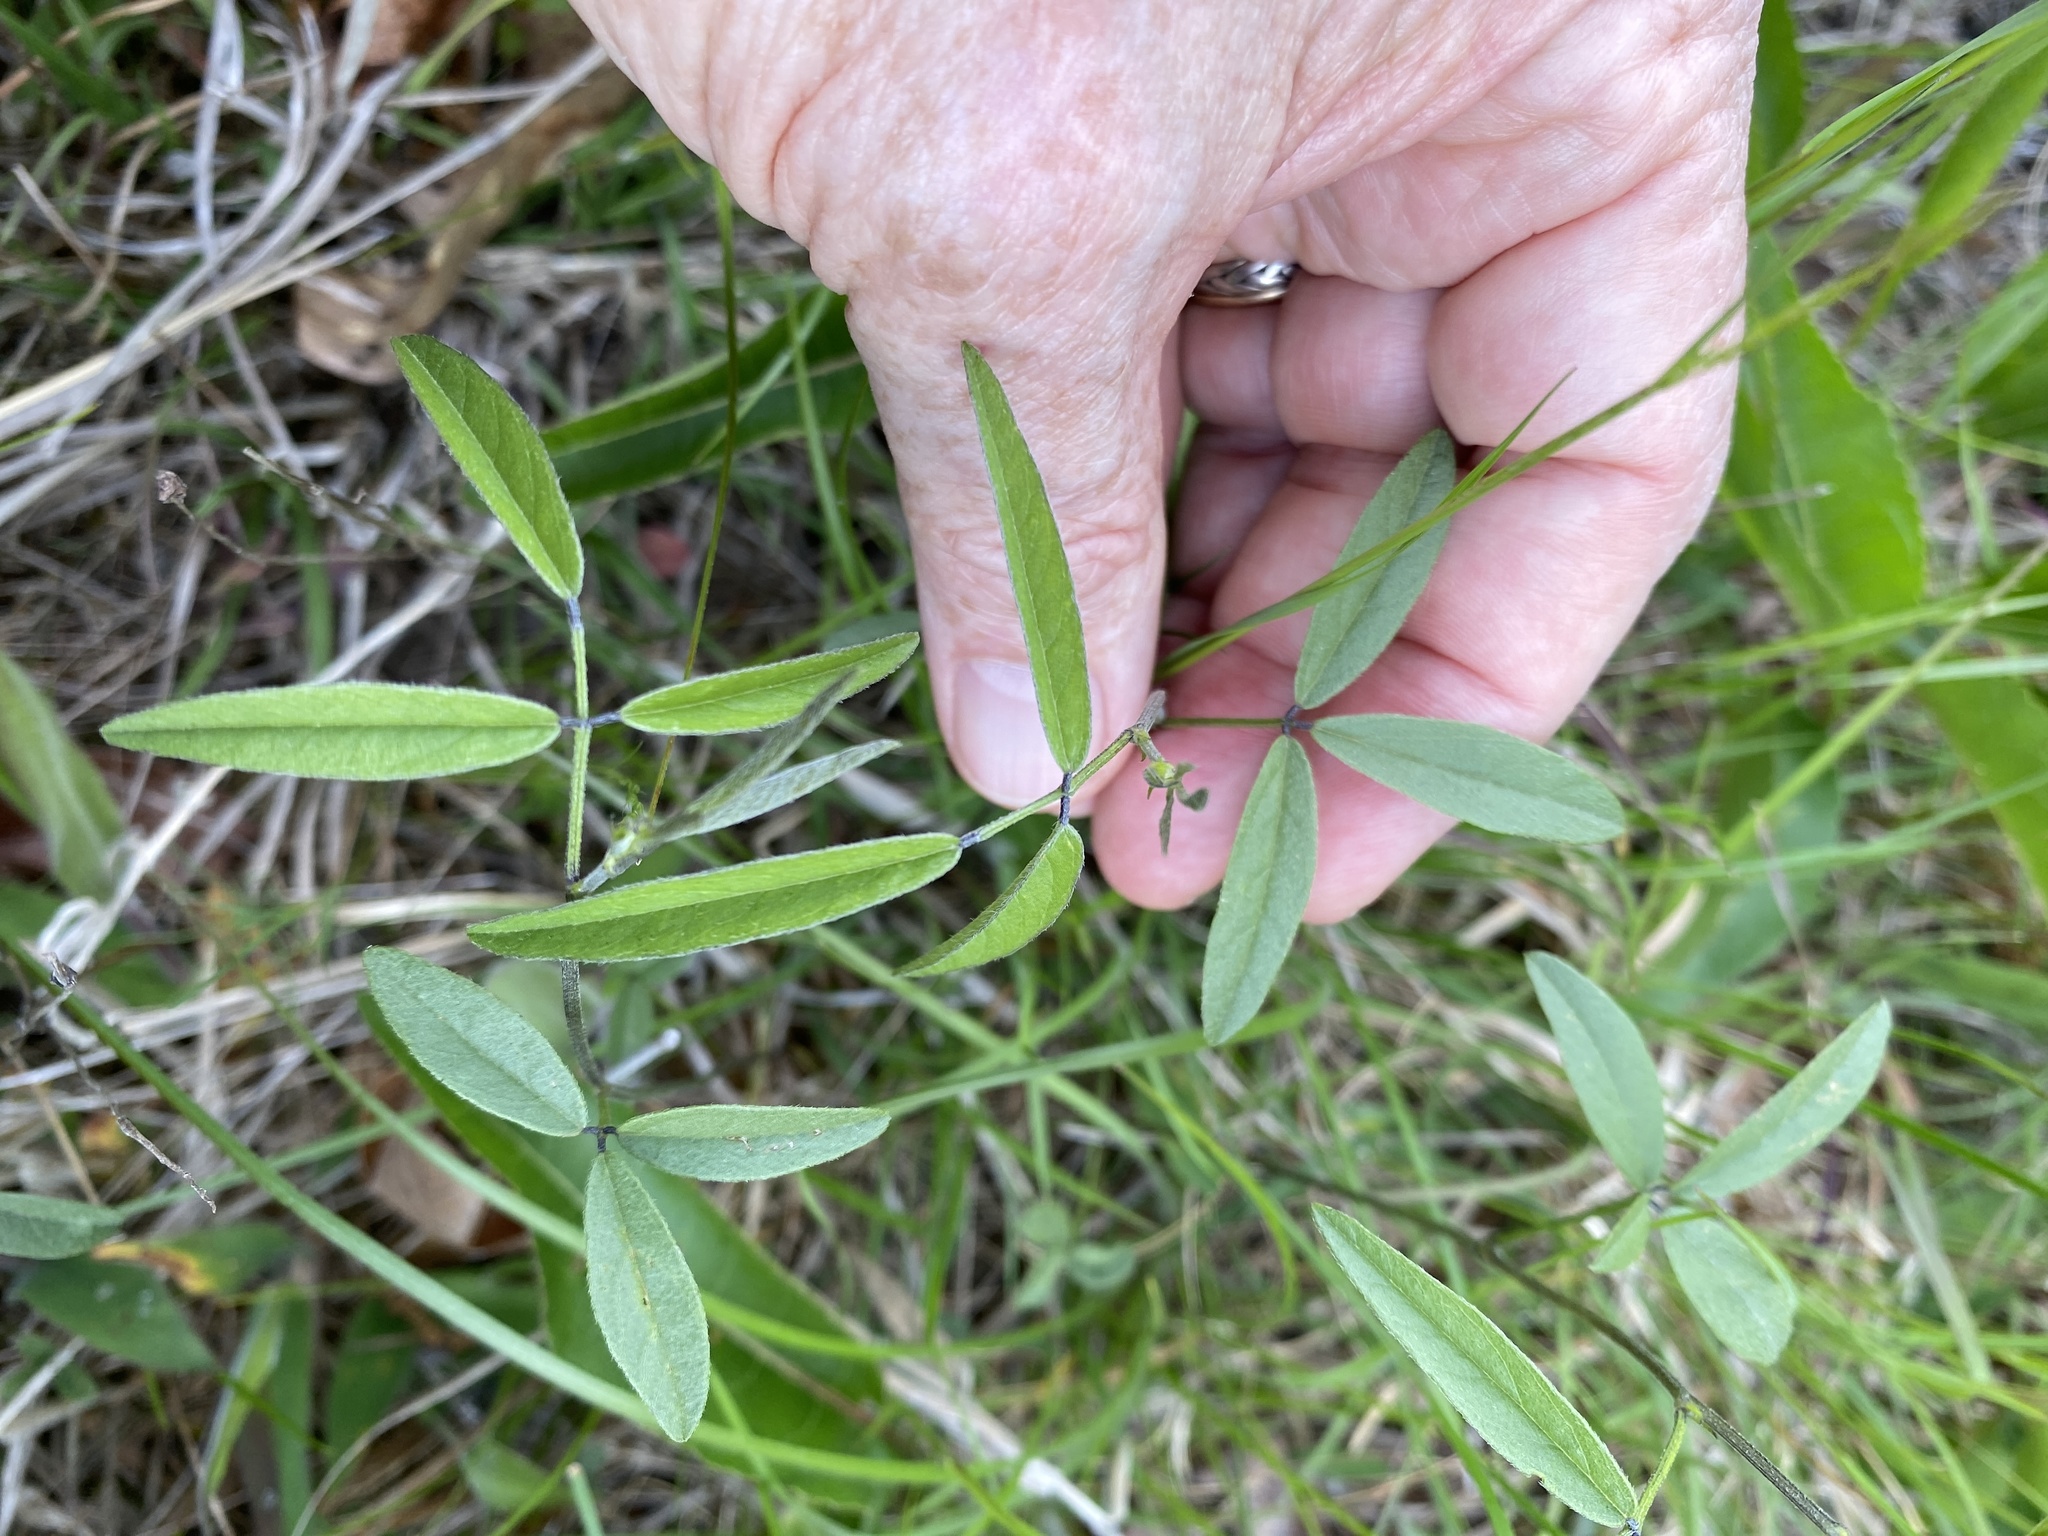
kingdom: Plantae
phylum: Tracheophyta
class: Magnoliopsida
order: Fabales
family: Fabaceae
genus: Orbexilum
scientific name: Orbexilum psoralioides
